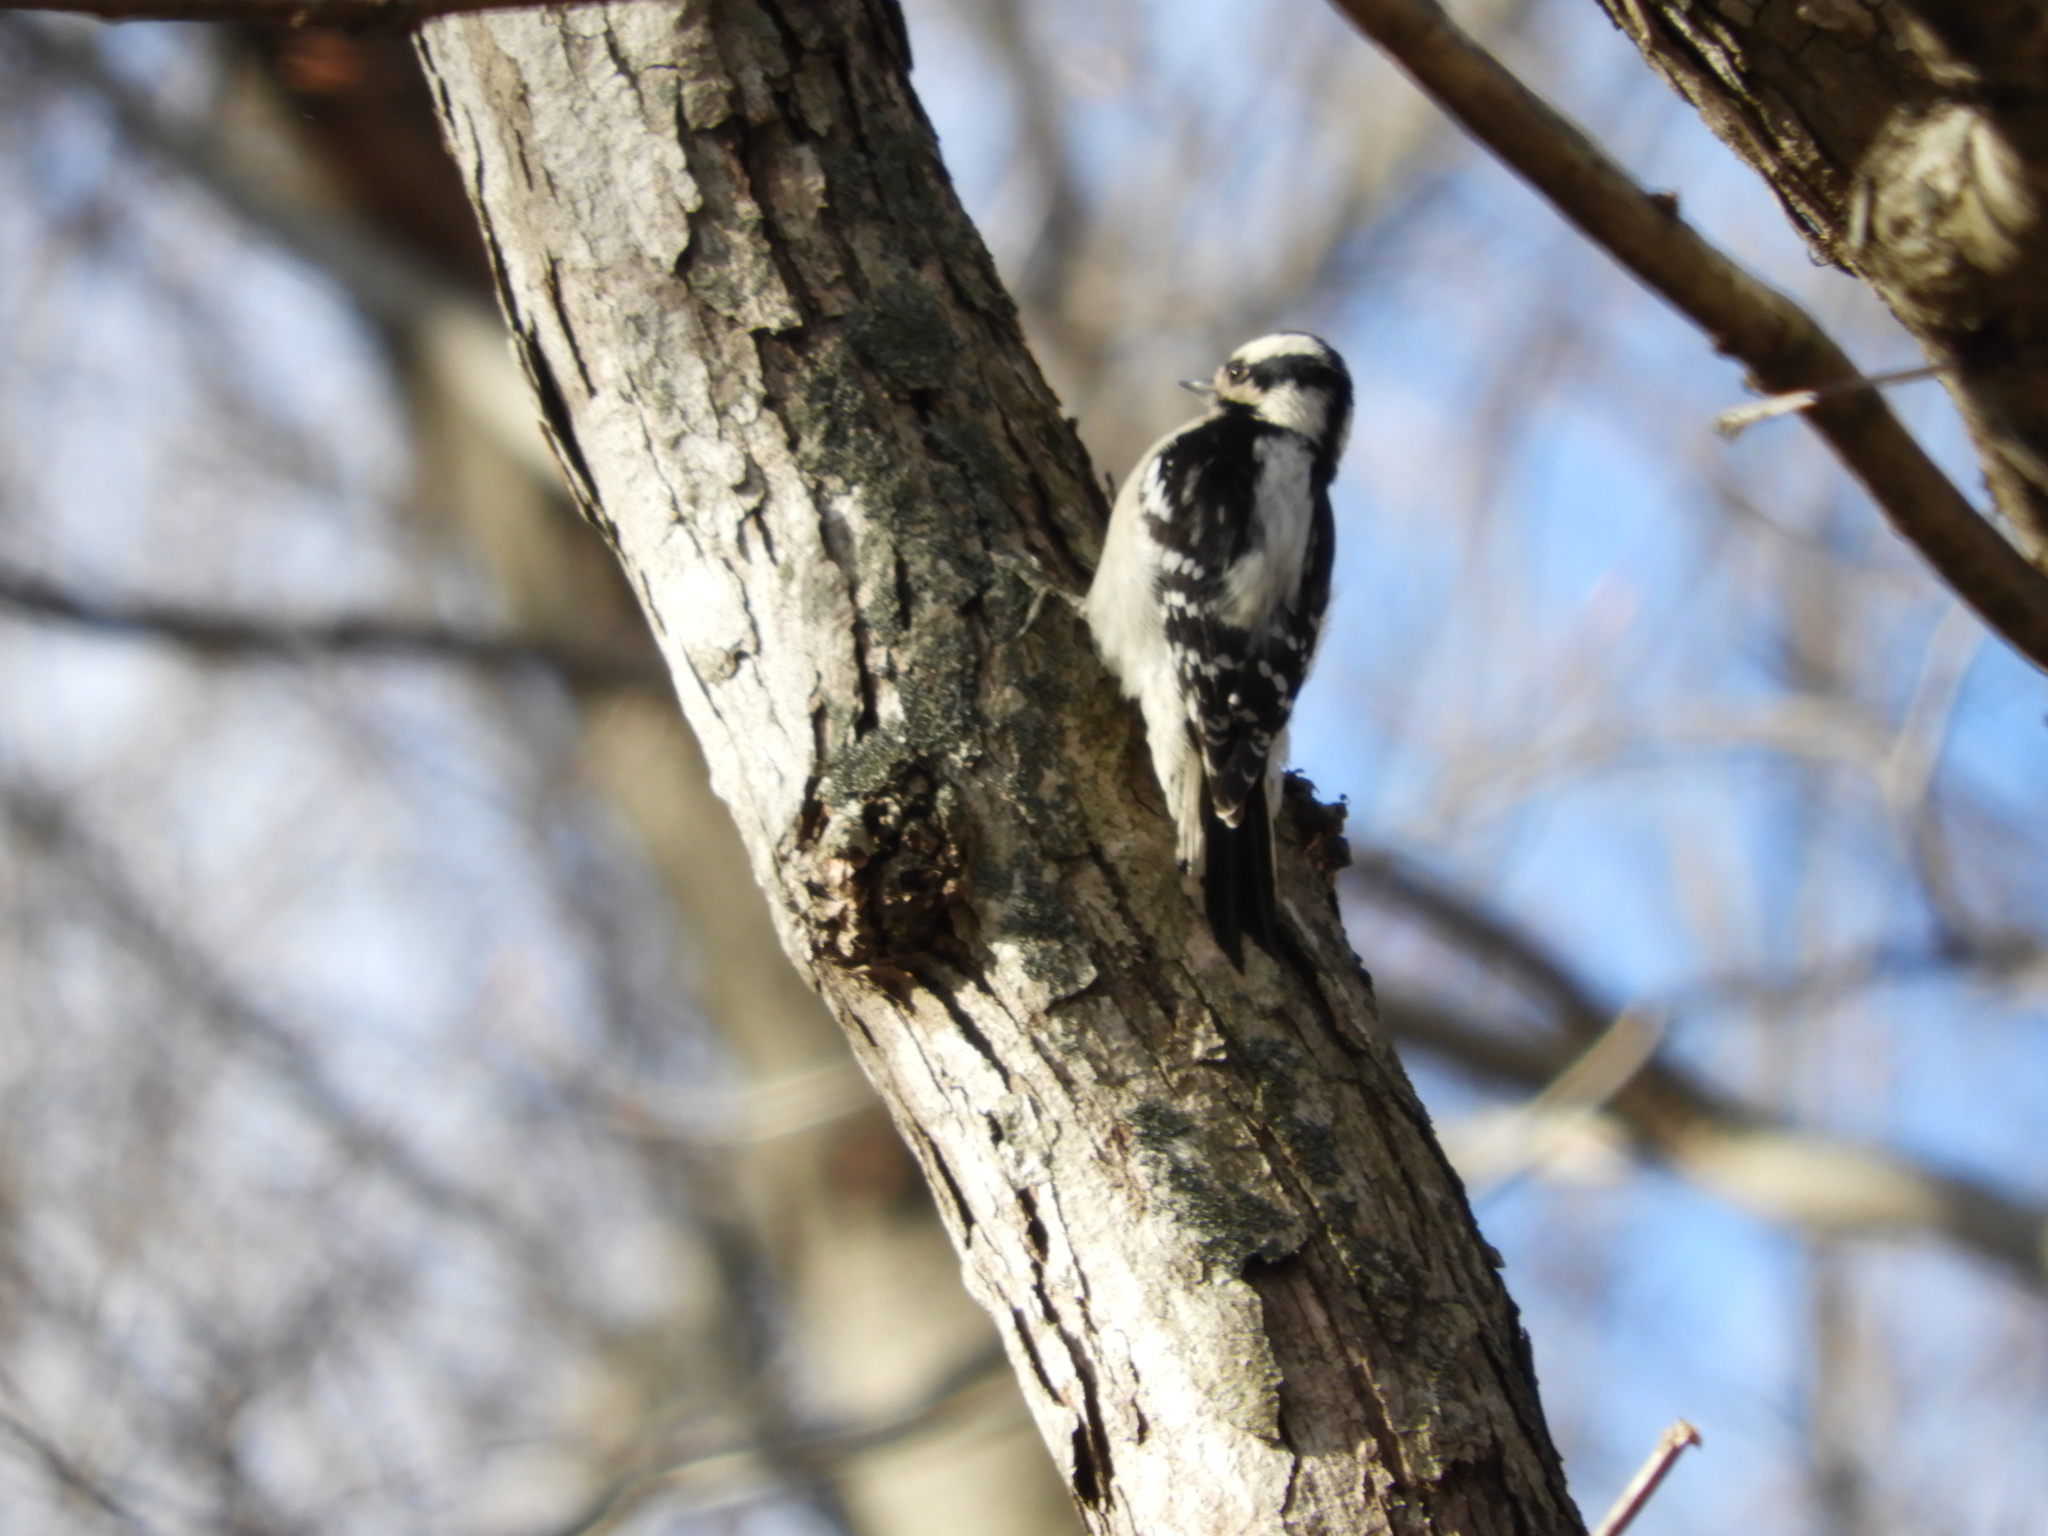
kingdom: Animalia
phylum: Chordata
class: Aves
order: Piciformes
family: Picidae
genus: Dryobates
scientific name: Dryobates pubescens
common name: Downy woodpecker
